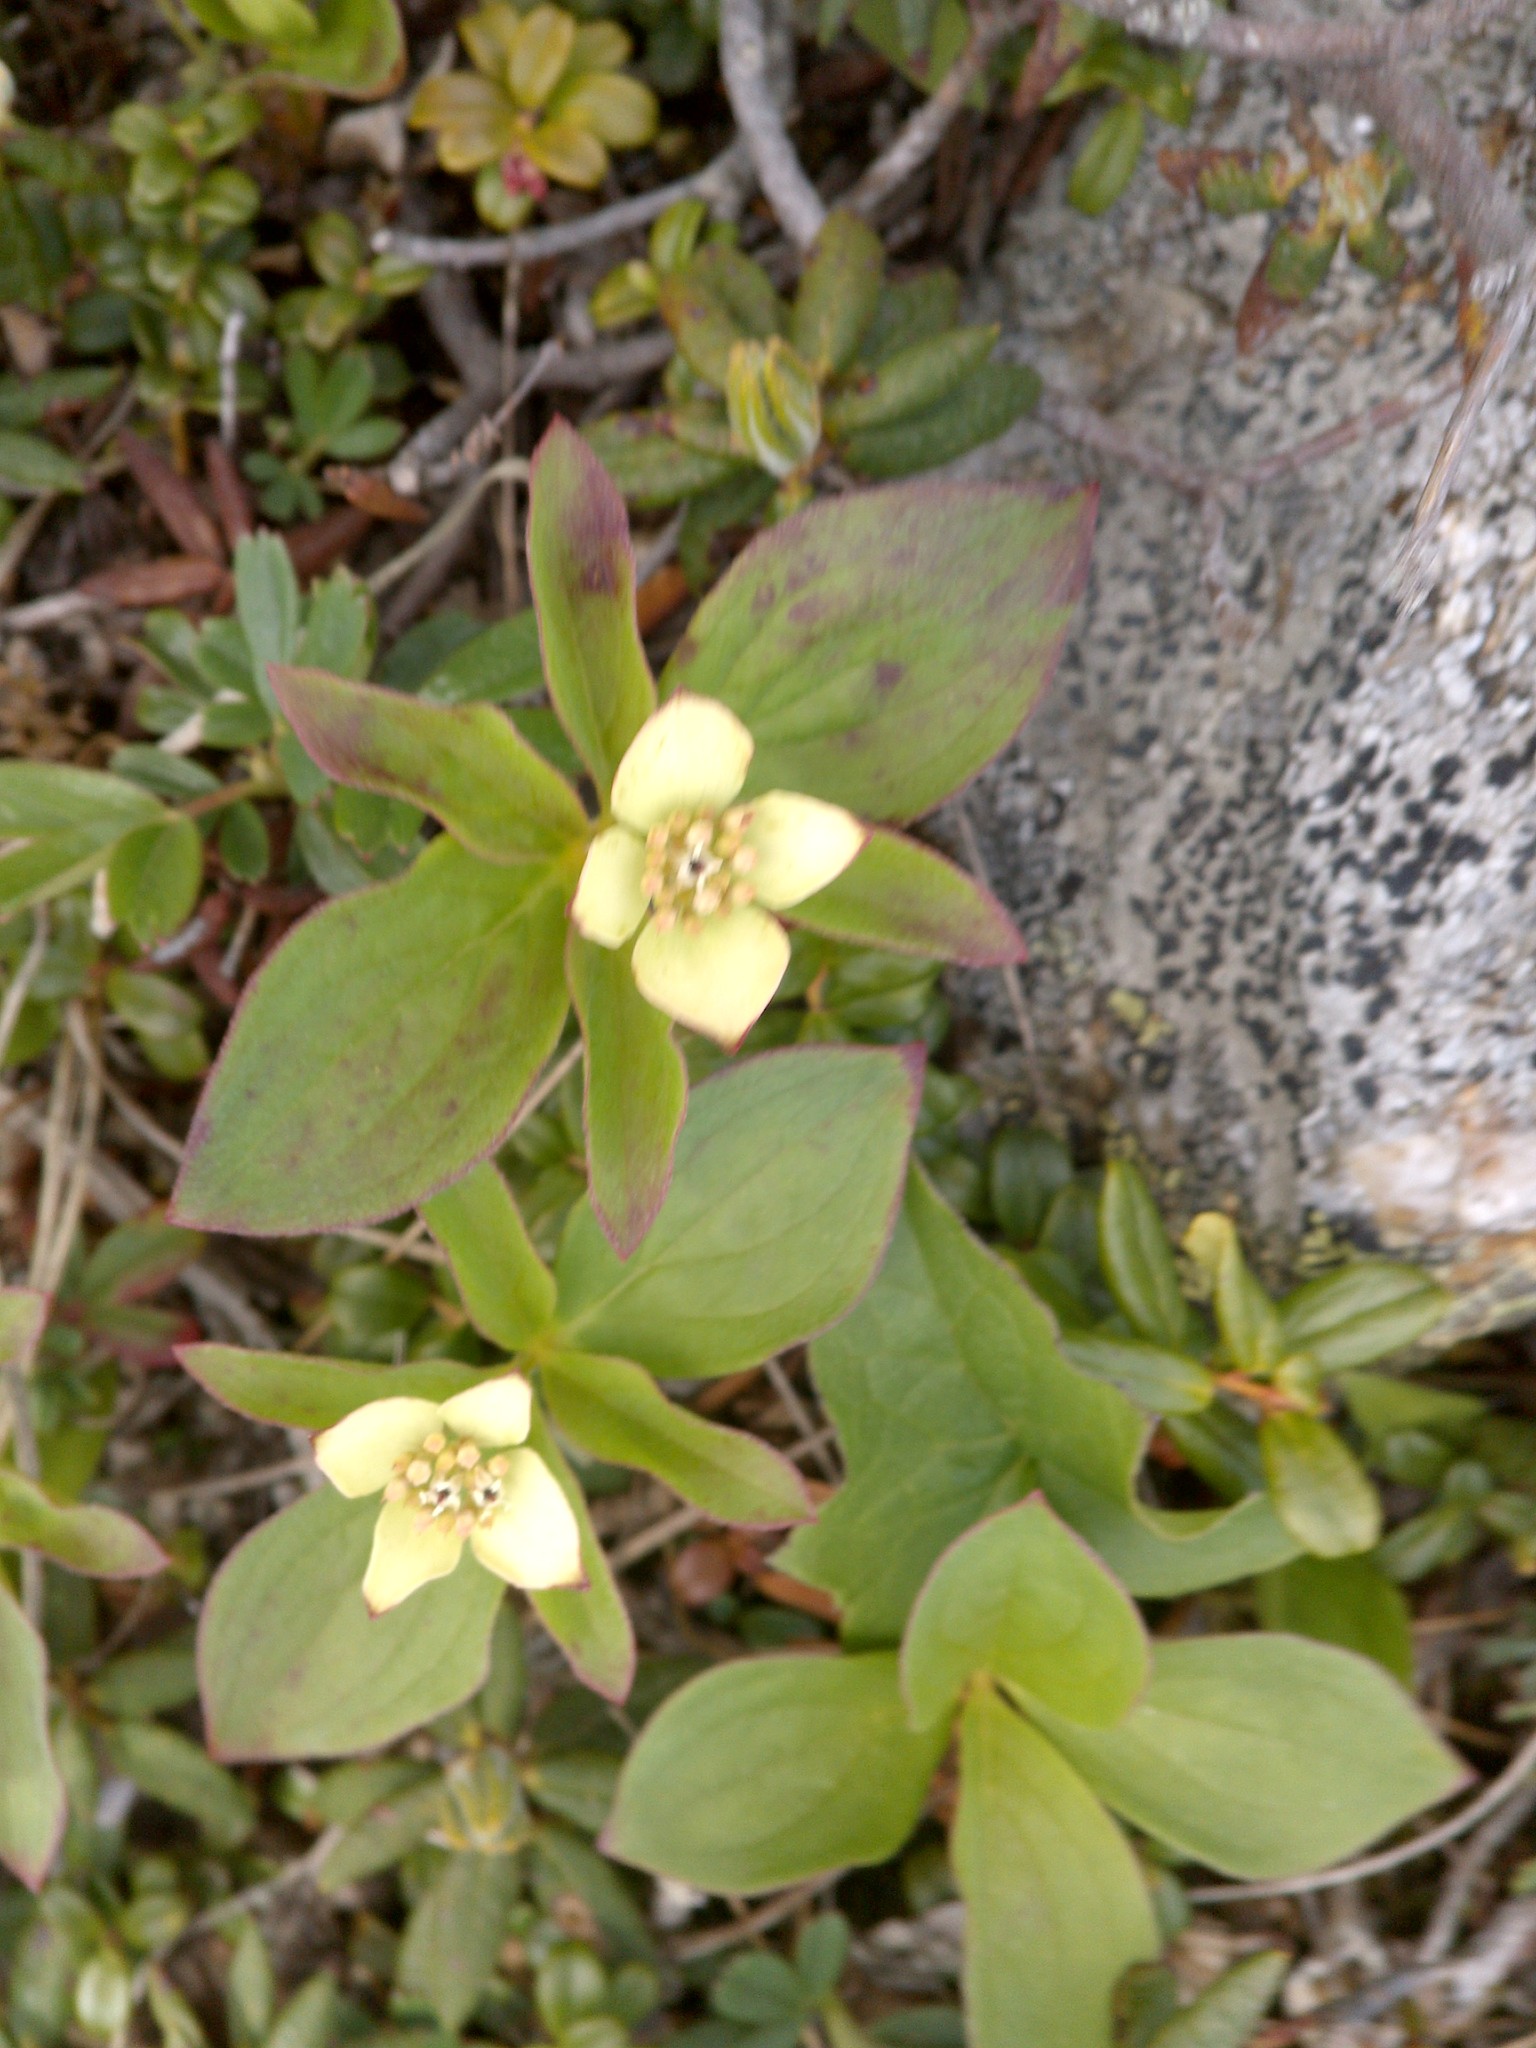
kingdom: Plantae
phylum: Tracheophyta
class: Magnoliopsida
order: Cornales
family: Cornaceae
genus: Cornus
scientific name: Cornus canadensis
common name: Creeping dogwood
